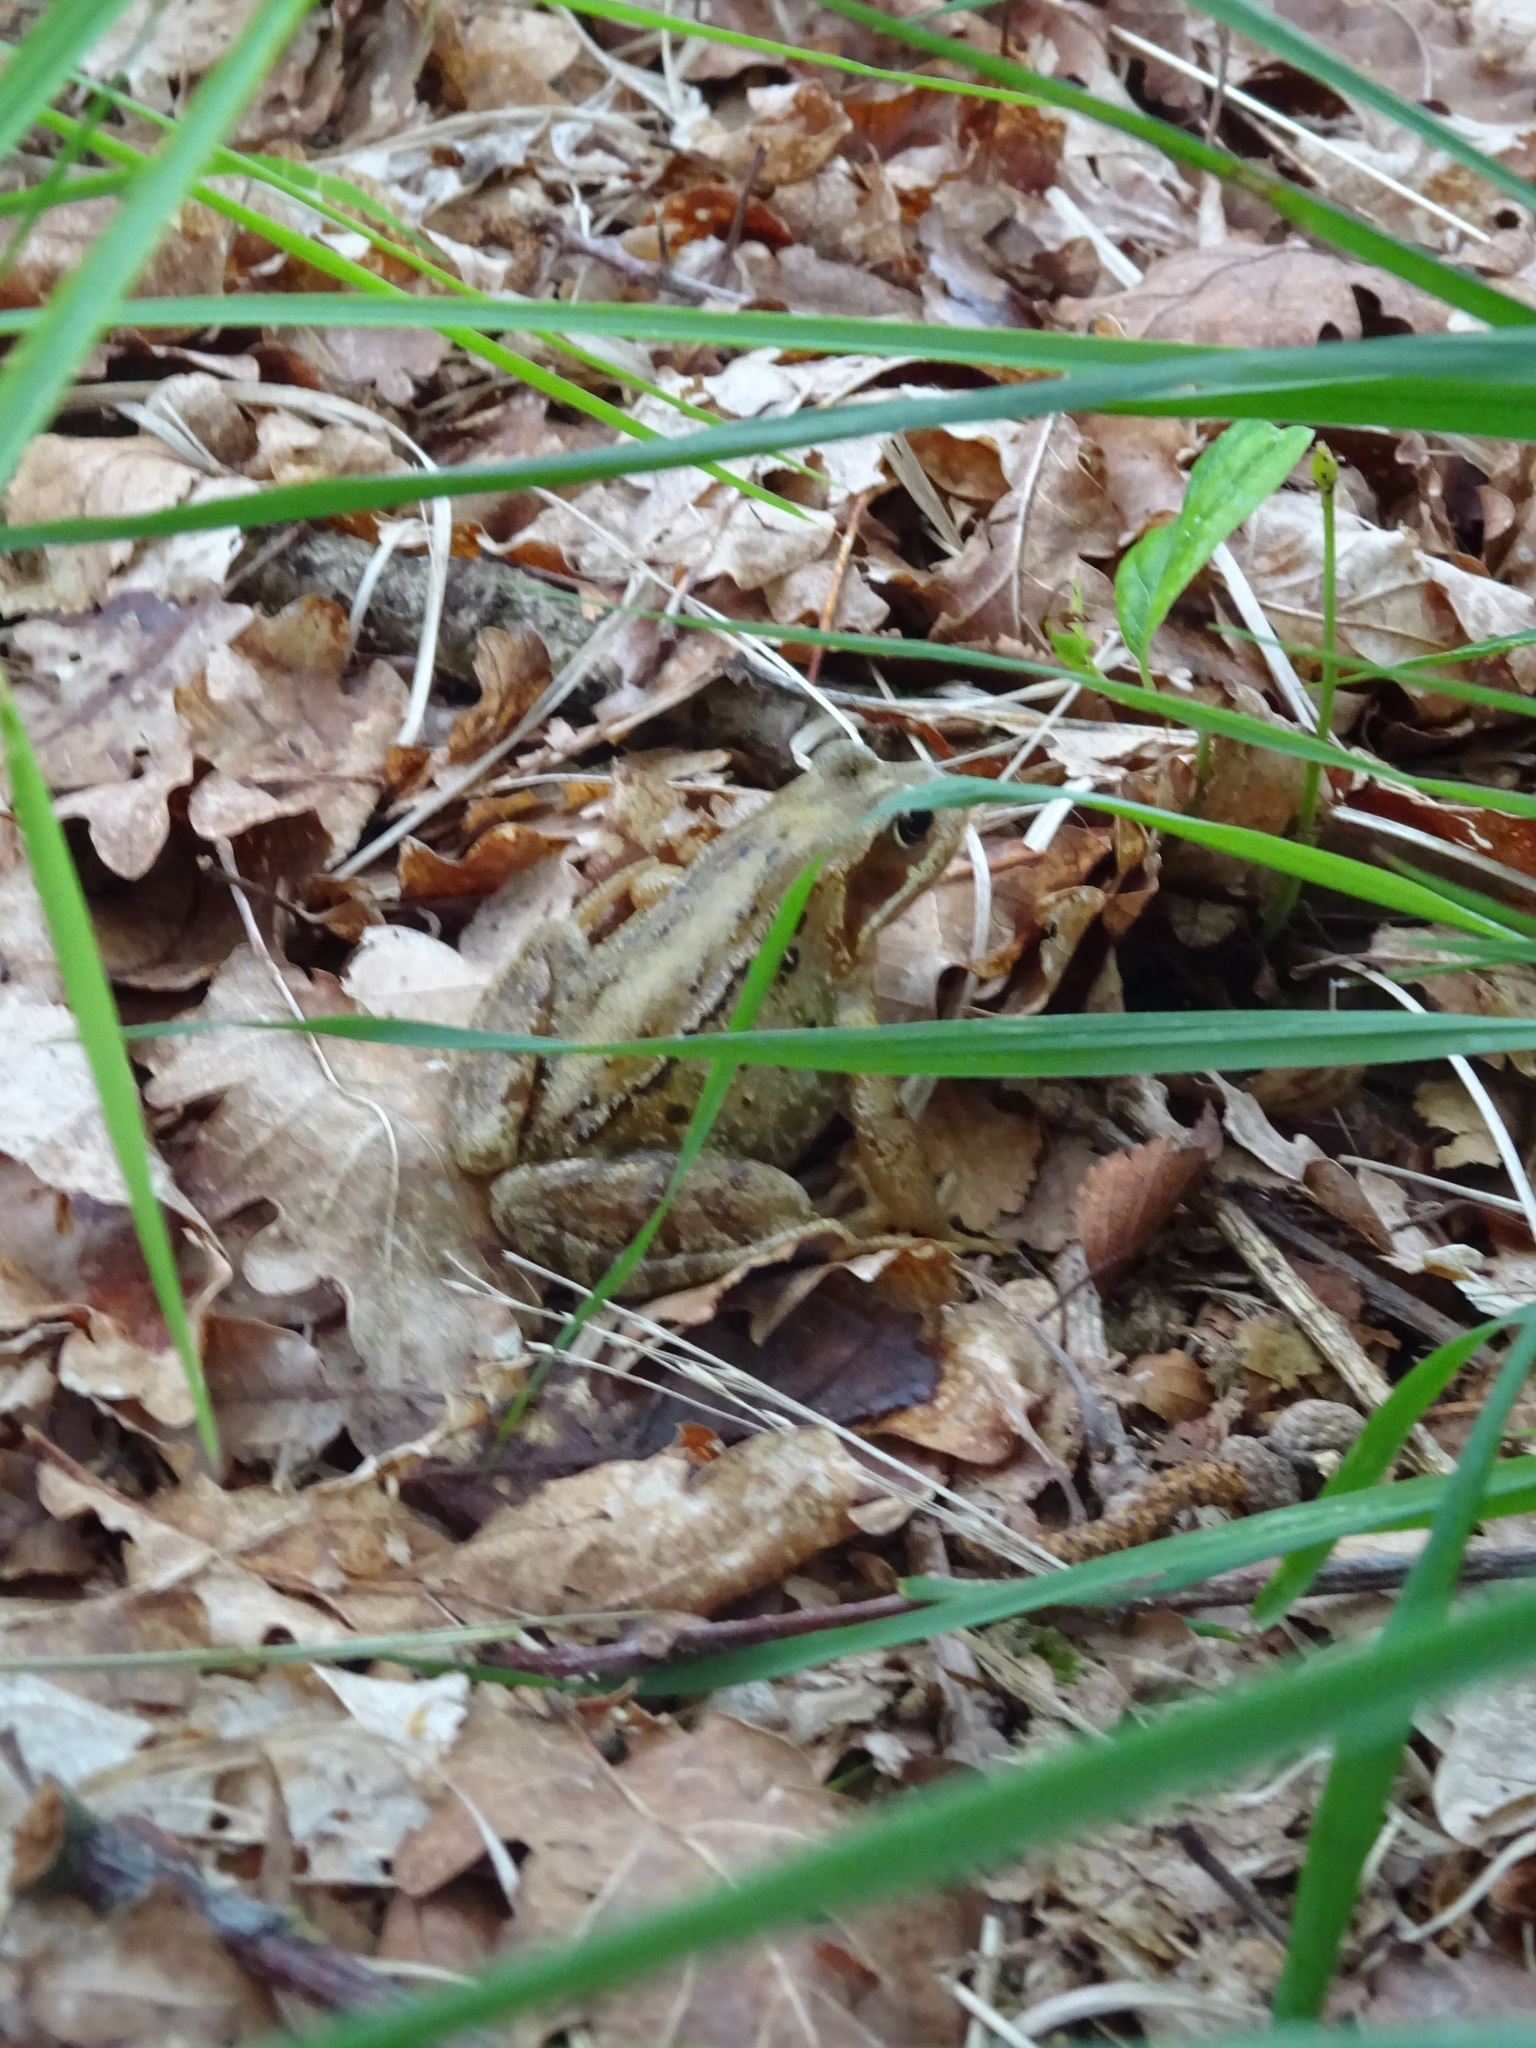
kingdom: Animalia
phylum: Chordata
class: Amphibia
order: Anura
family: Ranidae
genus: Rana
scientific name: Rana temporaria
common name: Common frog
